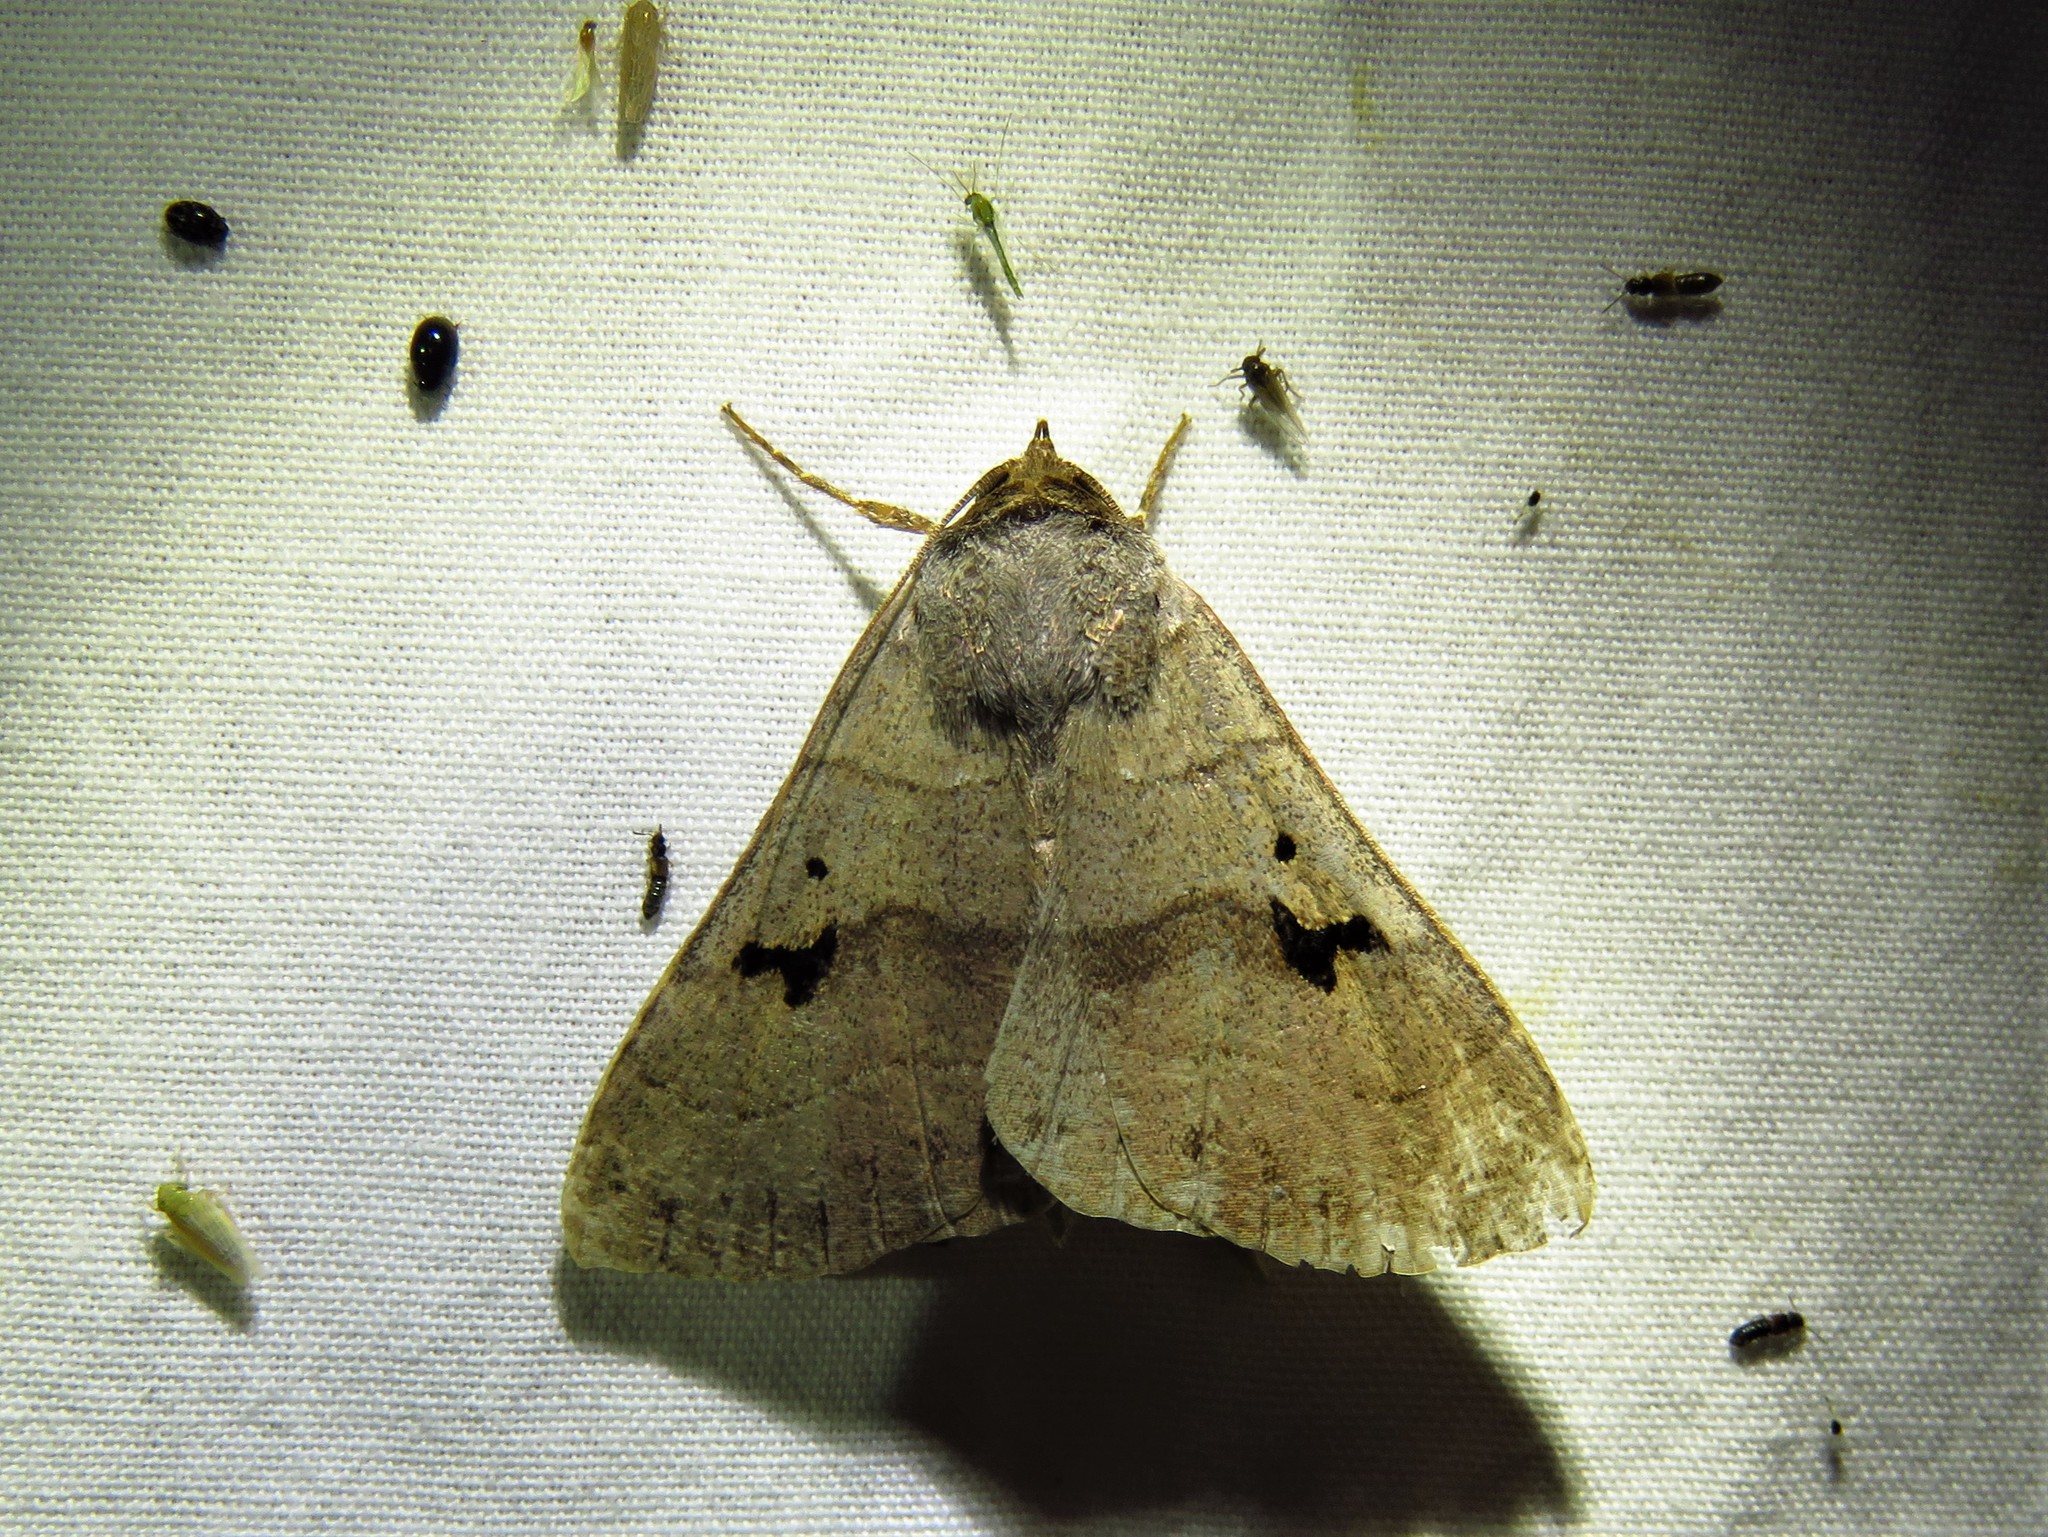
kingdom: Animalia
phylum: Arthropoda
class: Insecta
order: Lepidoptera
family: Erebidae
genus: Panopoda
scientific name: Panopoda carneicosta
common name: Brown panopoda moth
